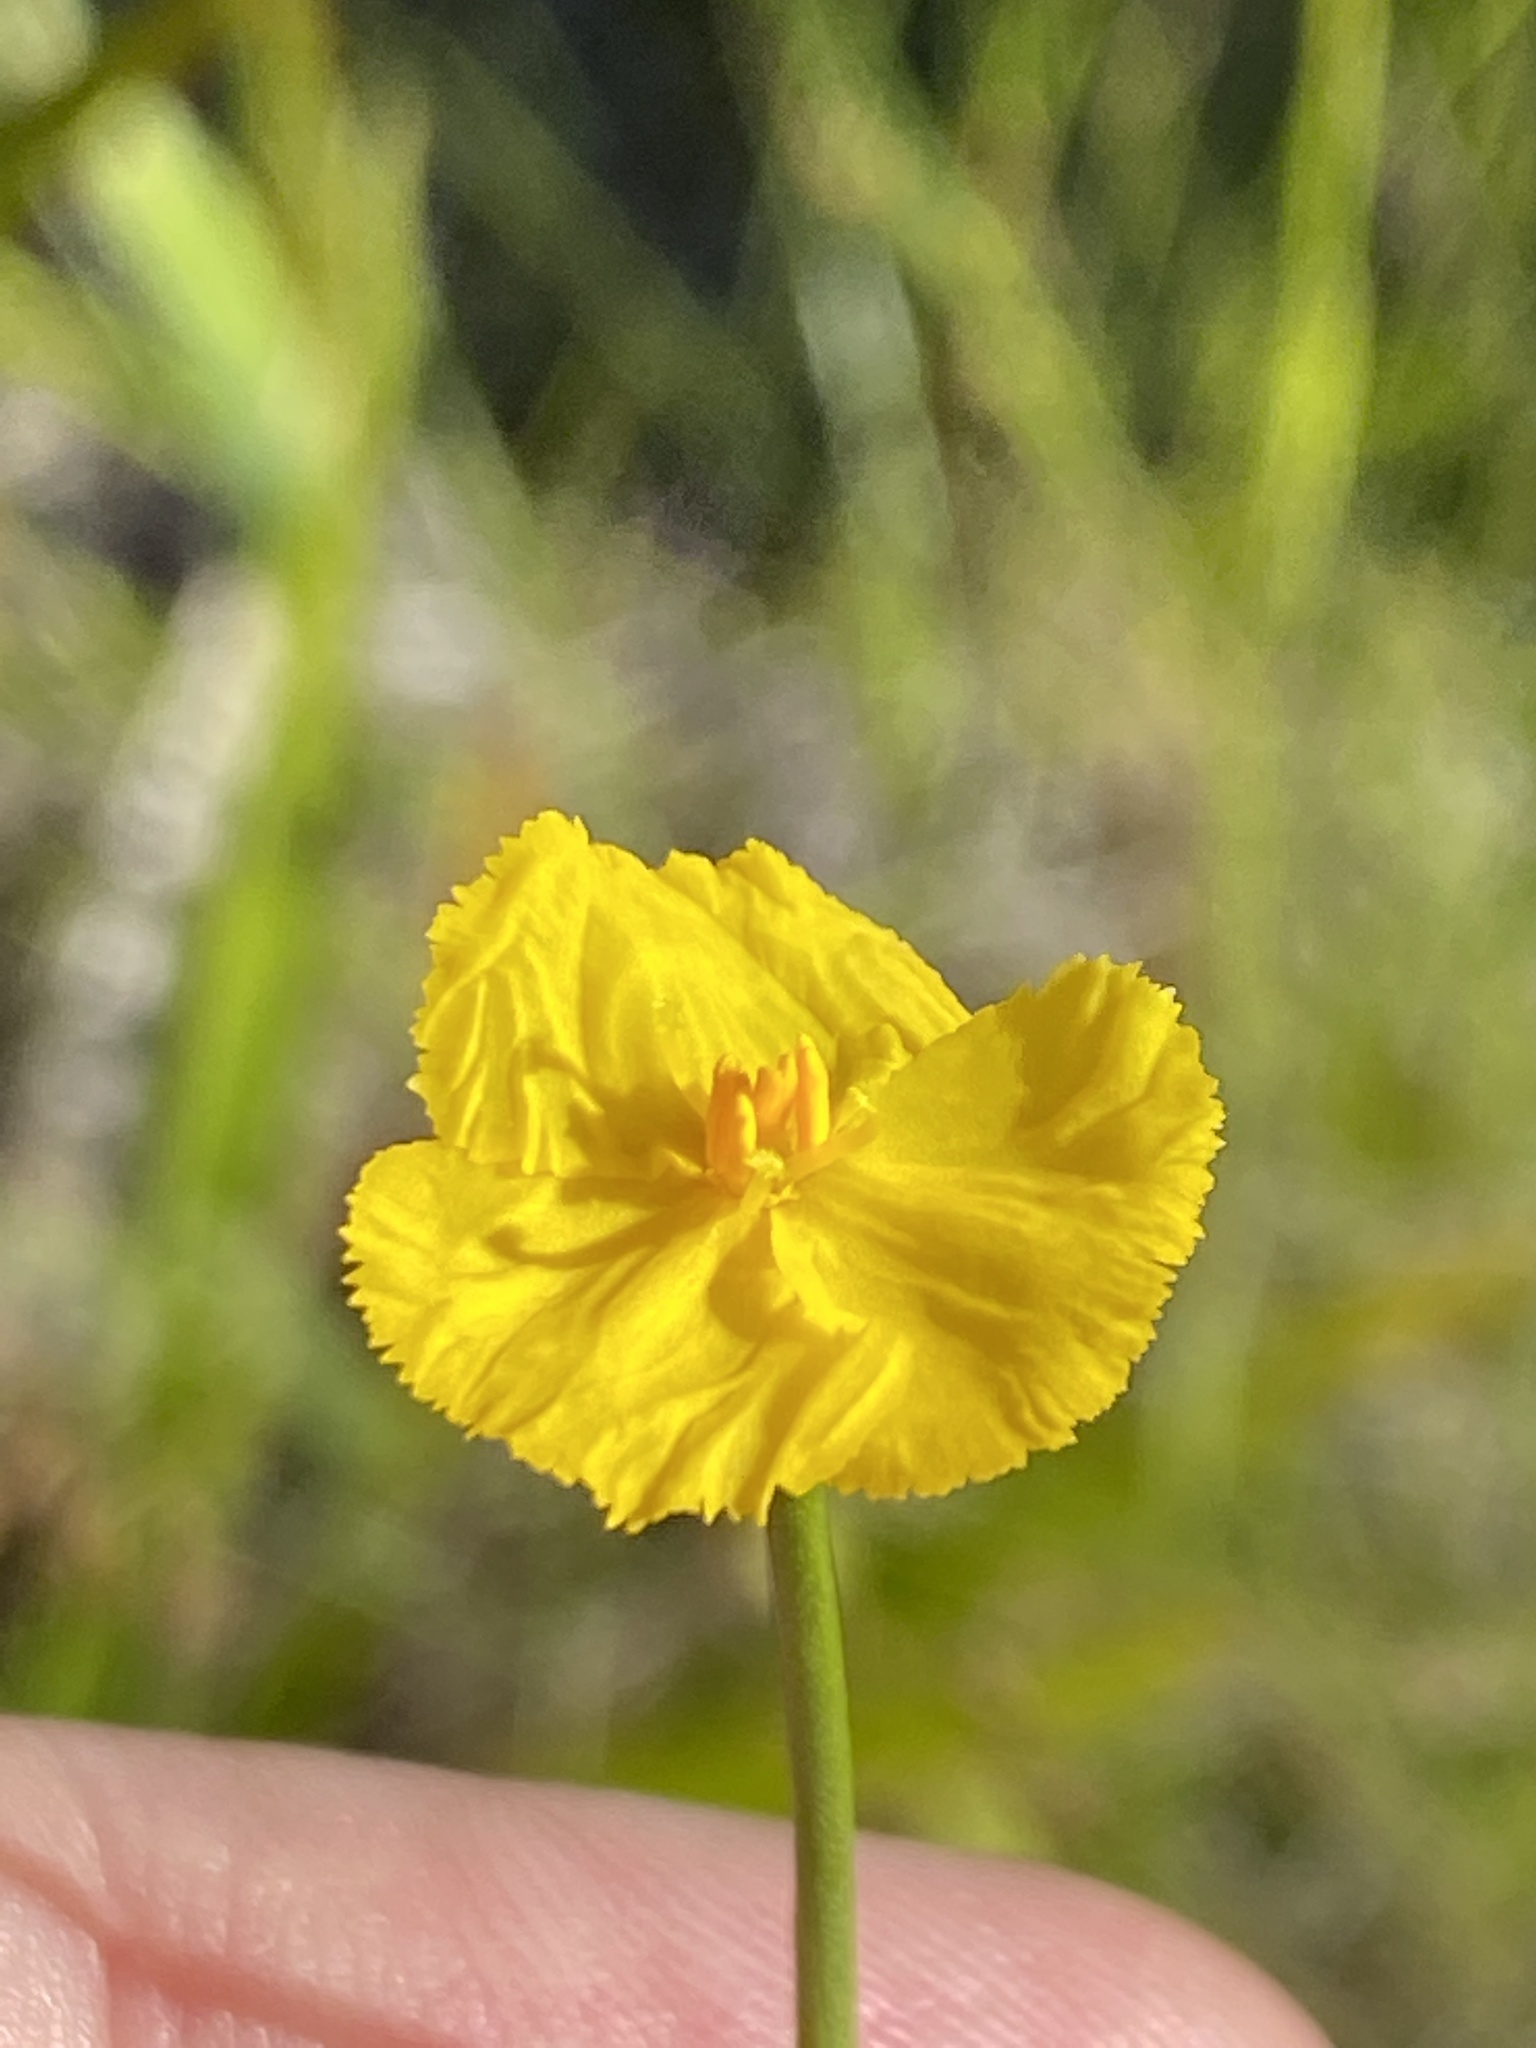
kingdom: Plantae
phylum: Tracheophyta
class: Liliopsida
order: Poales
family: Xyridaceae
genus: Xyris
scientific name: Xyris baldwiniana
